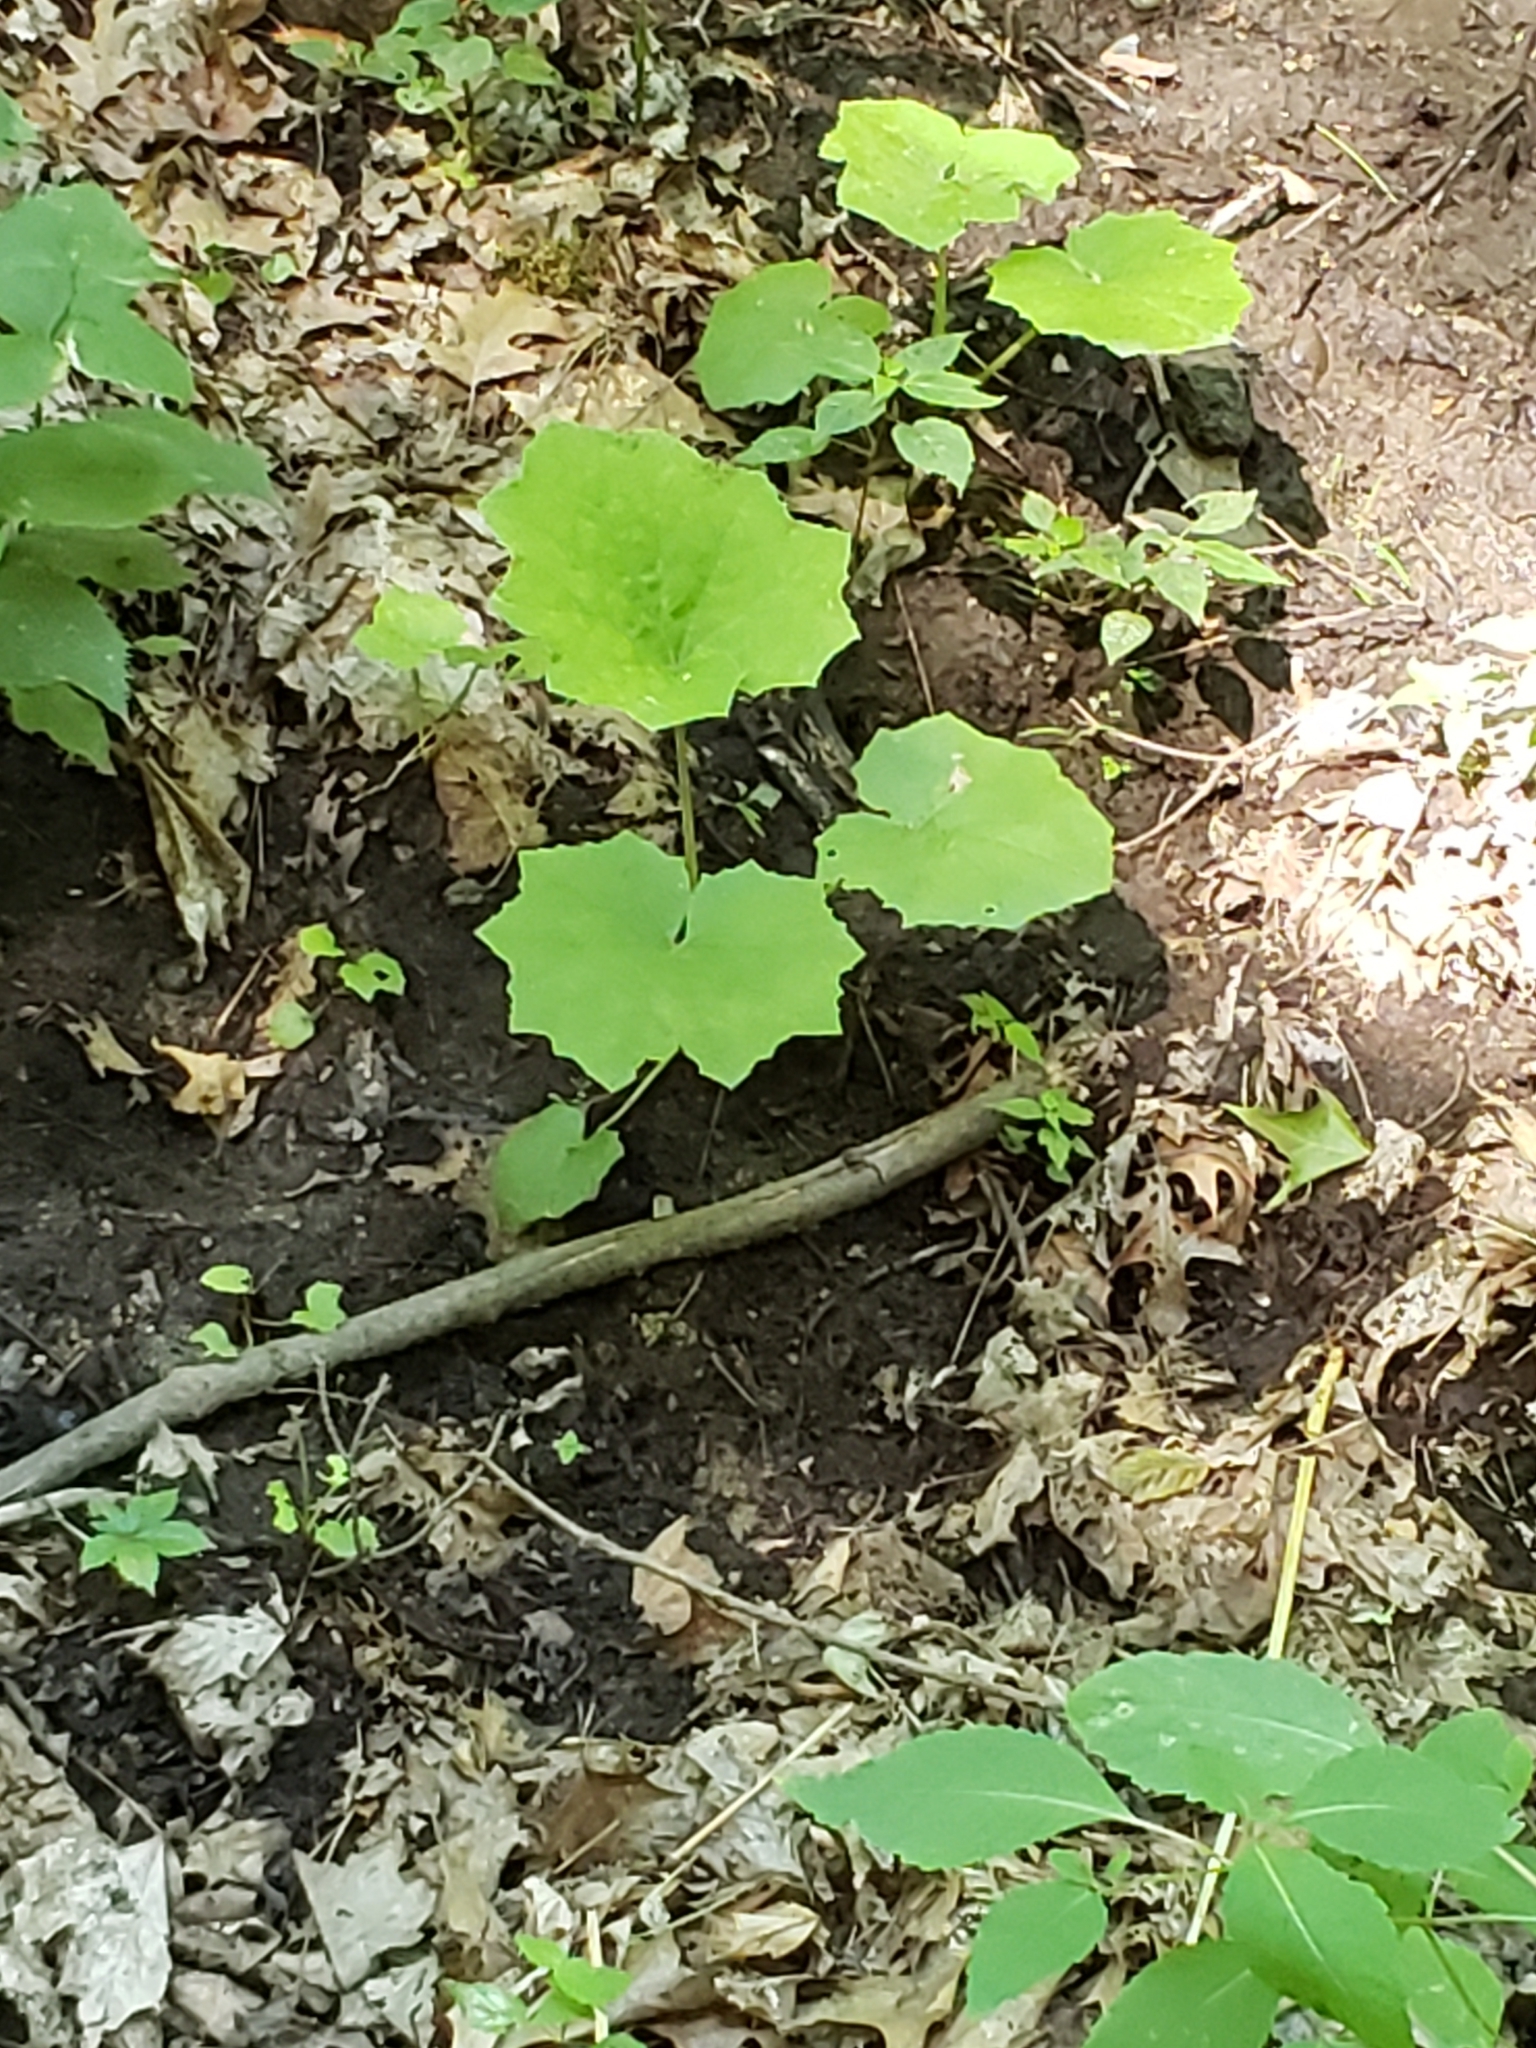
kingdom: Plantae
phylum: Tracheophyta
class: Magnoliopsida
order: Asterales
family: Asteraceae
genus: Tussilago
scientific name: Tussilago farfara
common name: Coltsfoot
